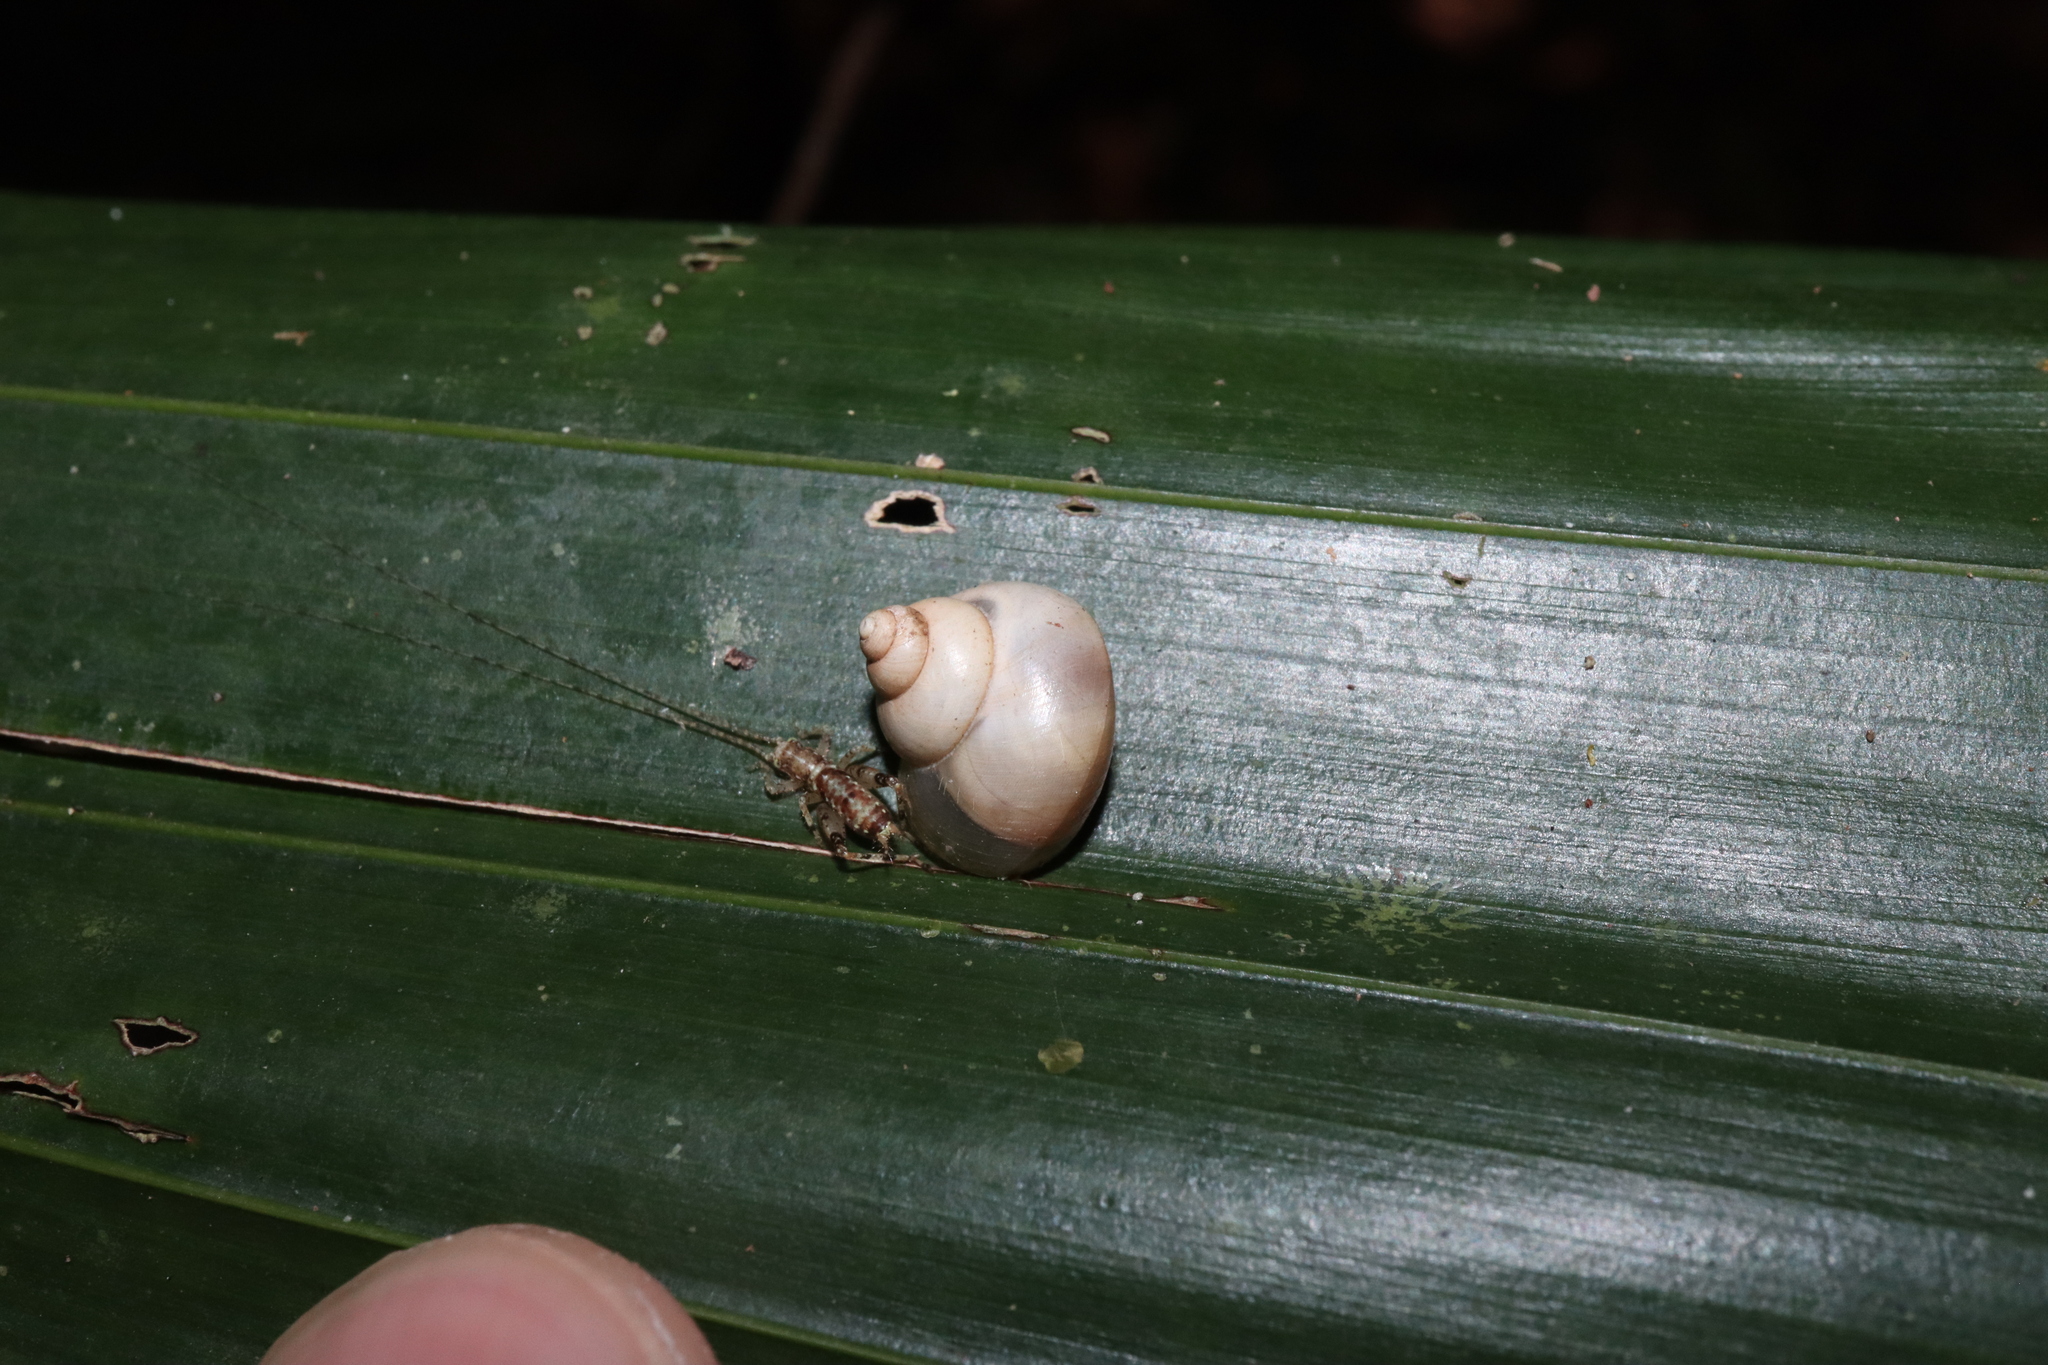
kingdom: Animalia
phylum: Mollusca
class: Gastropoda
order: Architaenioglossa
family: Cyclophoridae
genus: Leptopoma
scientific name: Leptopoma perlucidum
